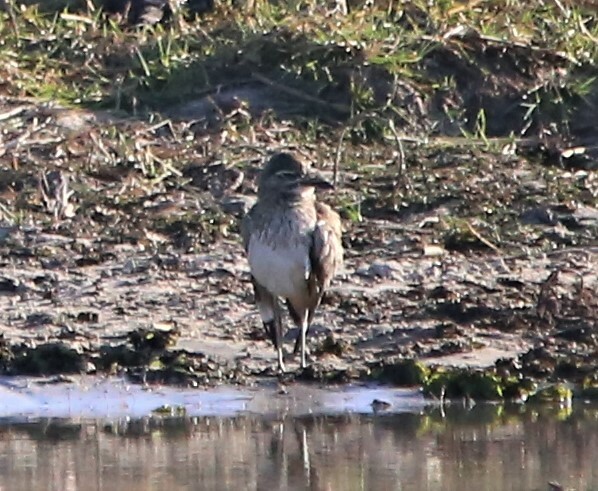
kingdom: Animalia
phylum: Chordata
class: Aves
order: Charadriiformes
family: Burhinidae
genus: Burhinus
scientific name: Burhinus vermiculatus
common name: Water thick-knee
